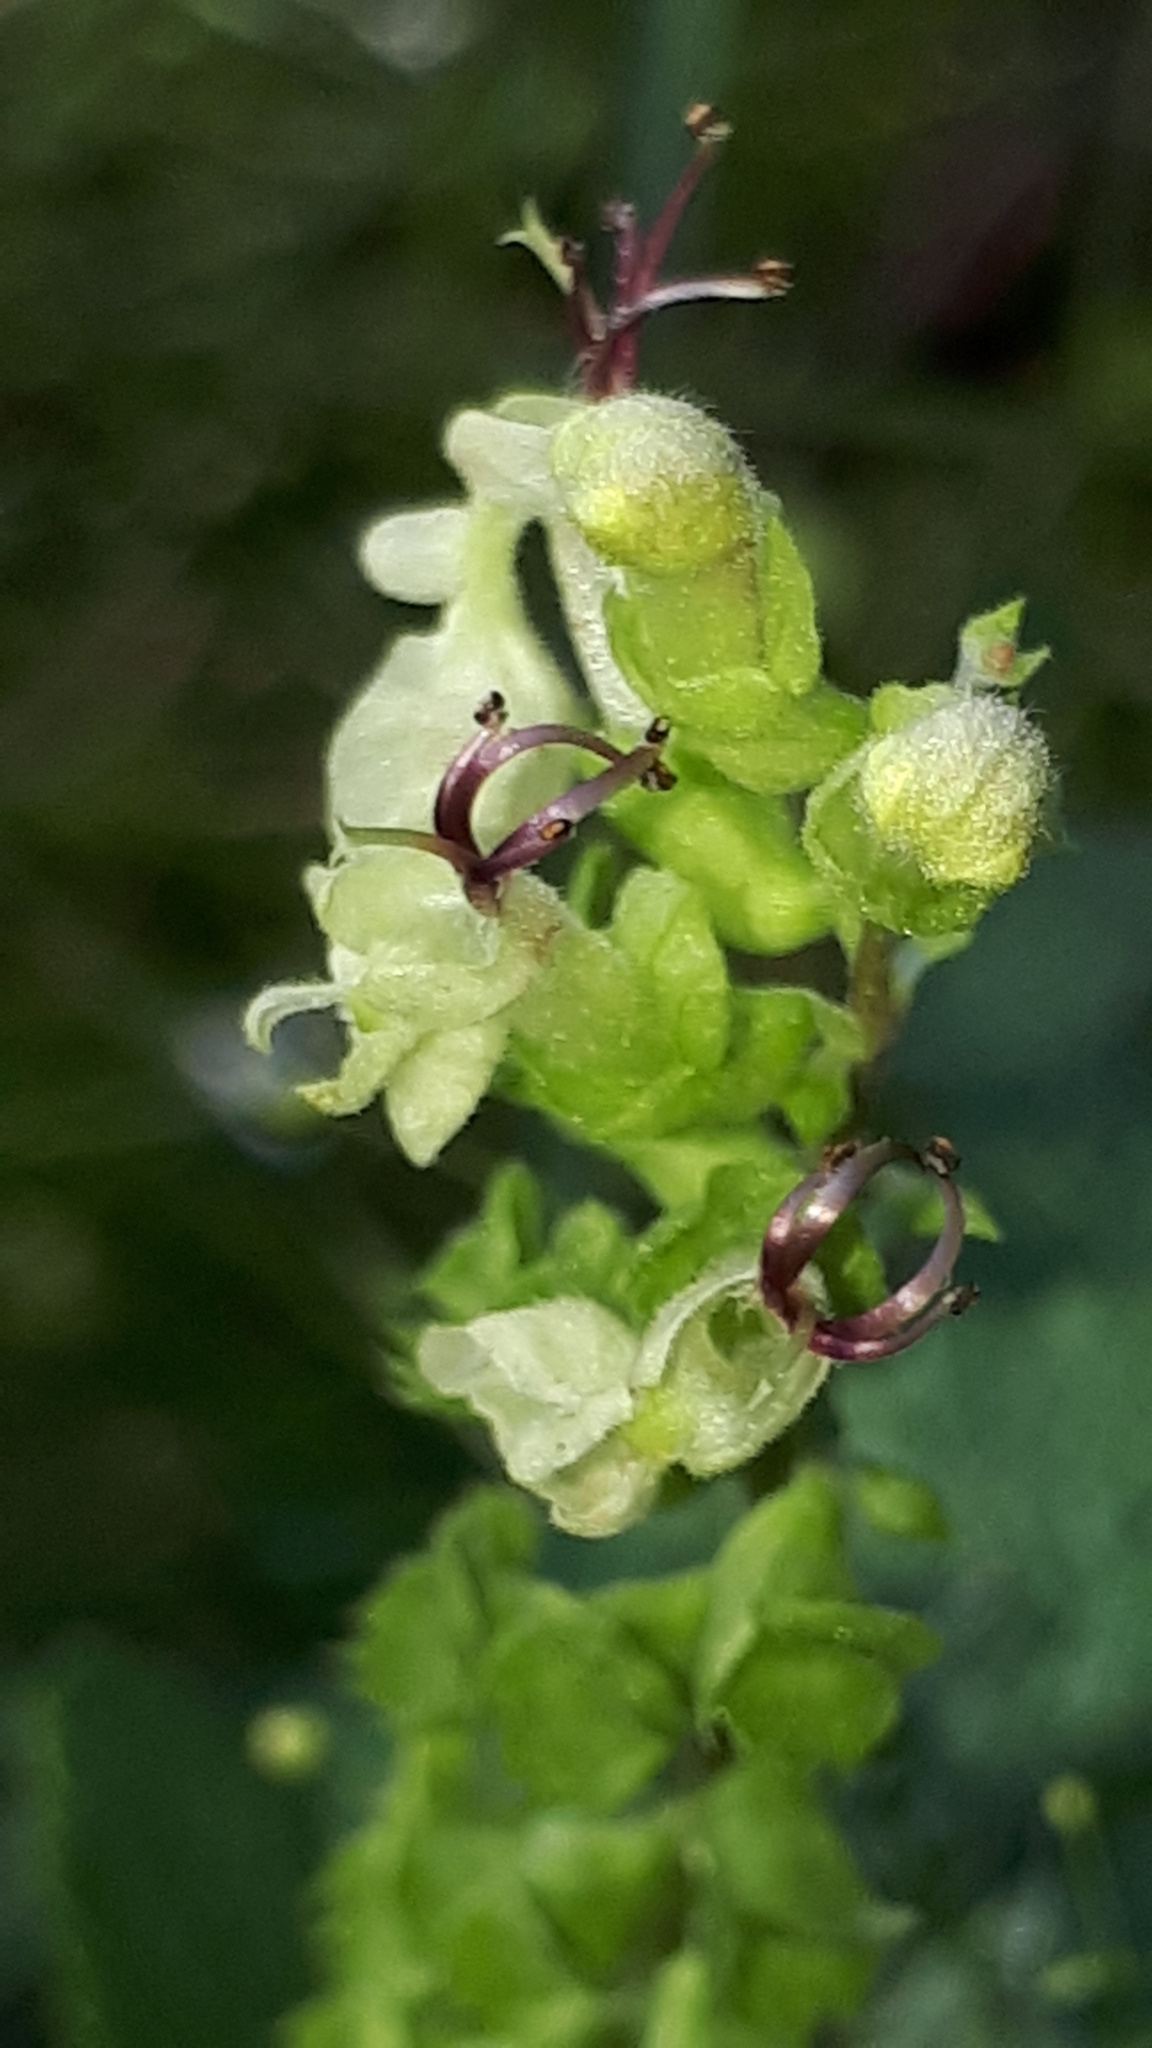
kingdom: Plantae
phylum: Tracheophyta
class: Magnoliopsida
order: Lamiales
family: Lamiaceae
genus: Teucrium
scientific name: Teucrium scorodonia
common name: Woodland germander
